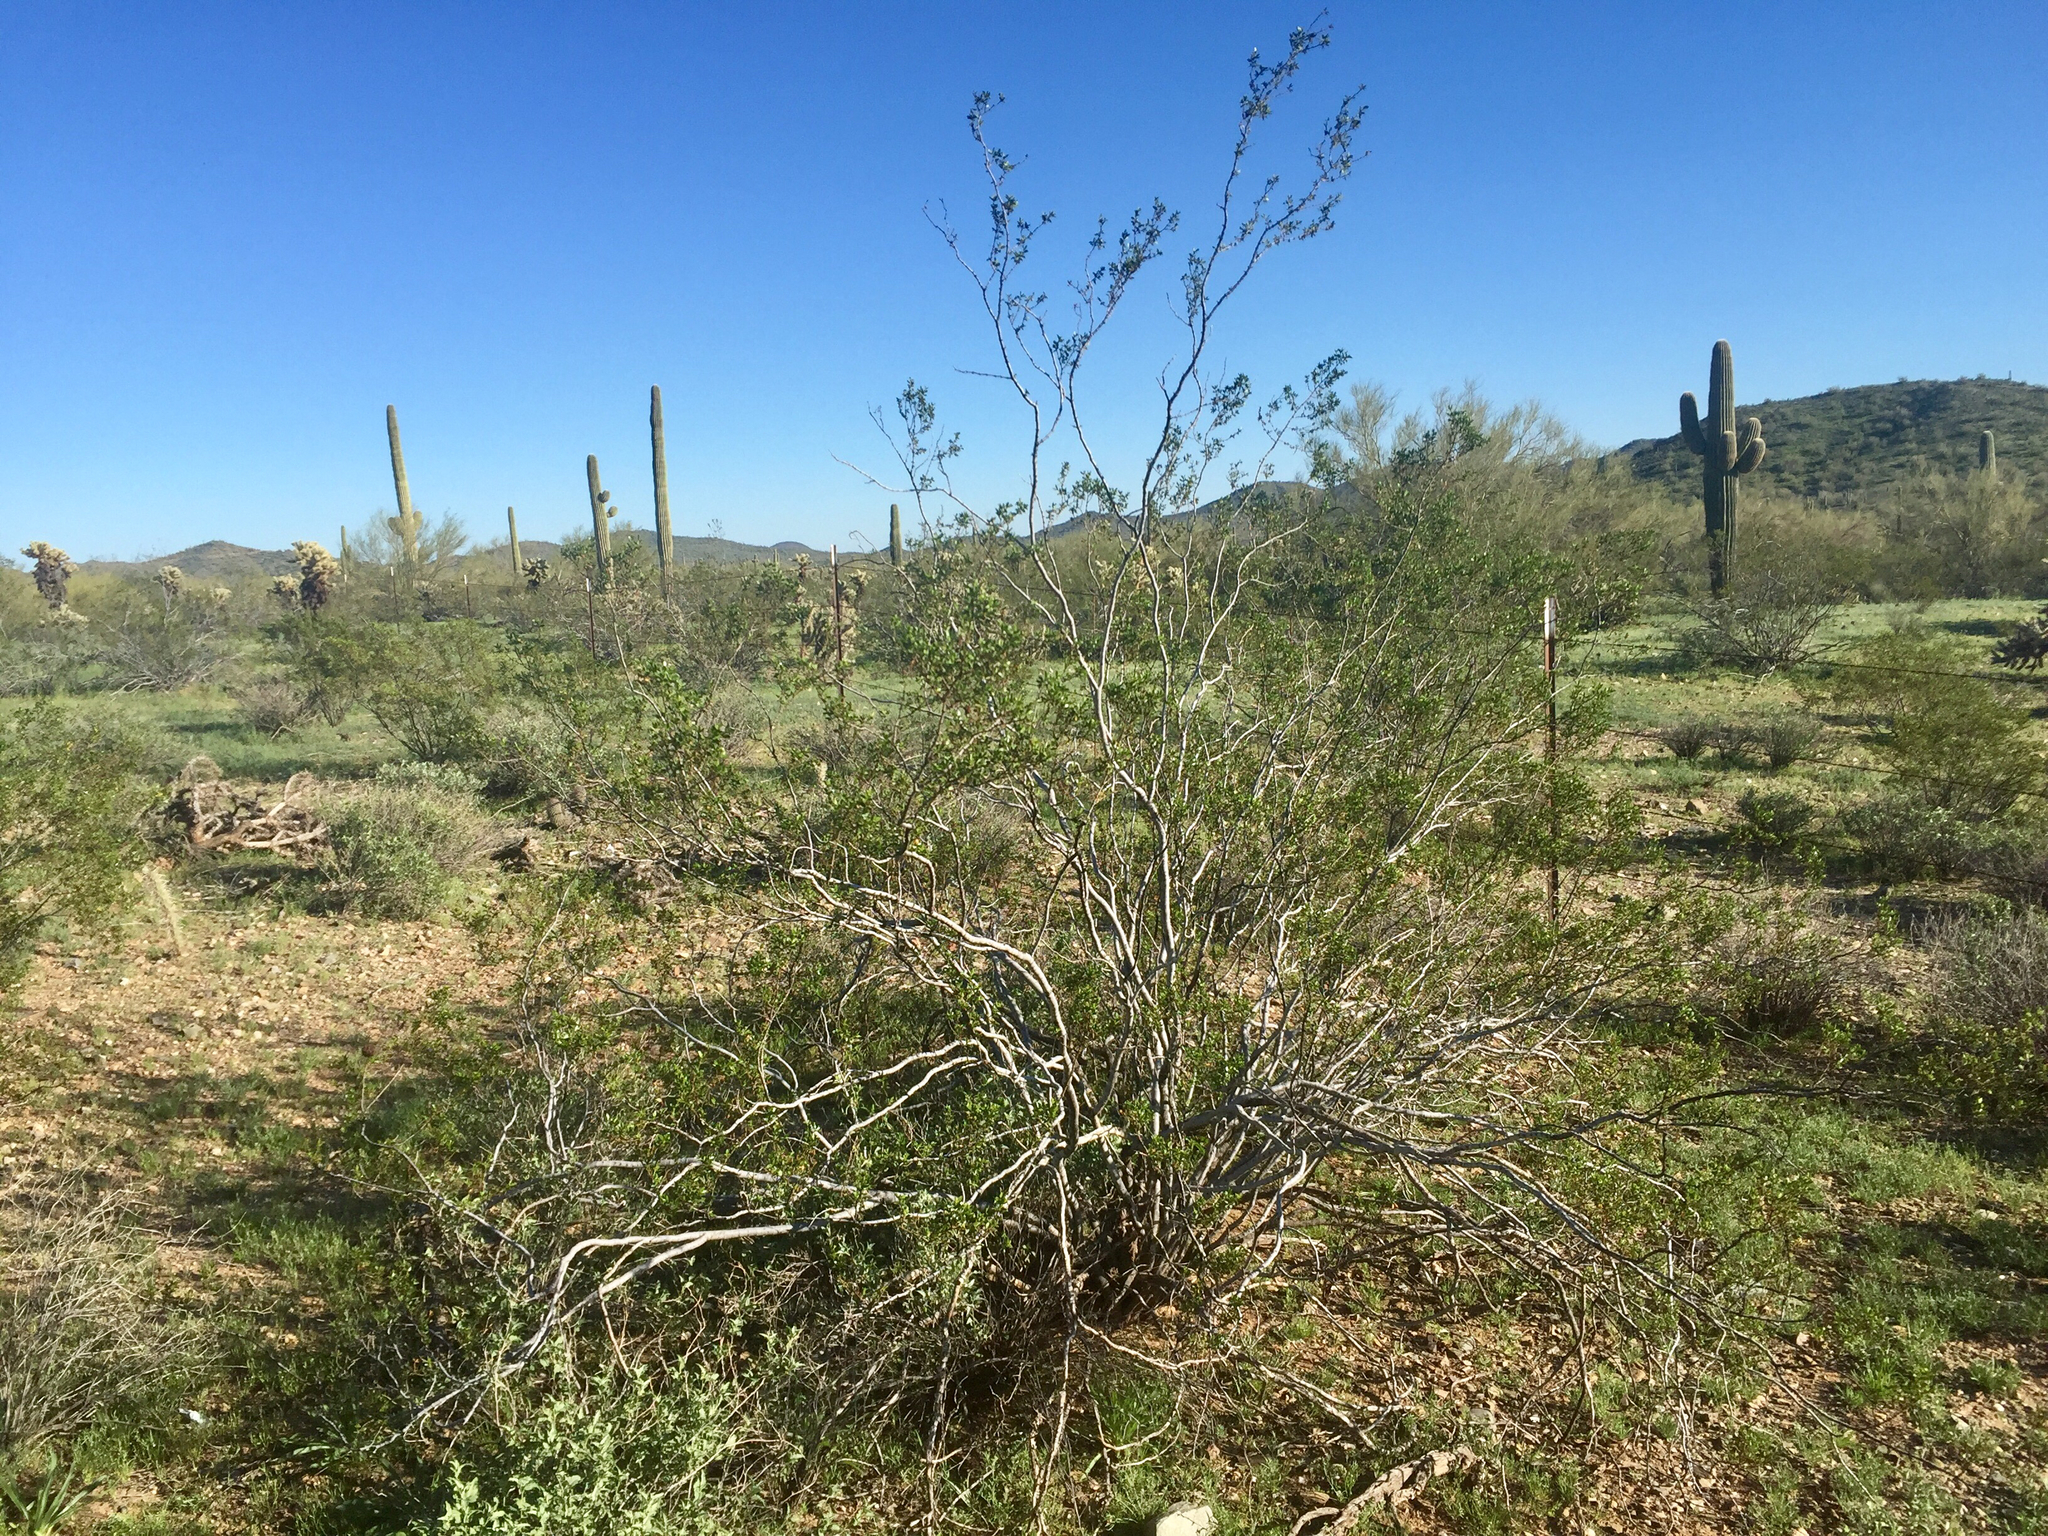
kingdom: Plantae
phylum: Tracheophyta
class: Magnoliopsida
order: Zygophyllales
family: Zygophyllaceae
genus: Larrea
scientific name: Larrea tridentata
